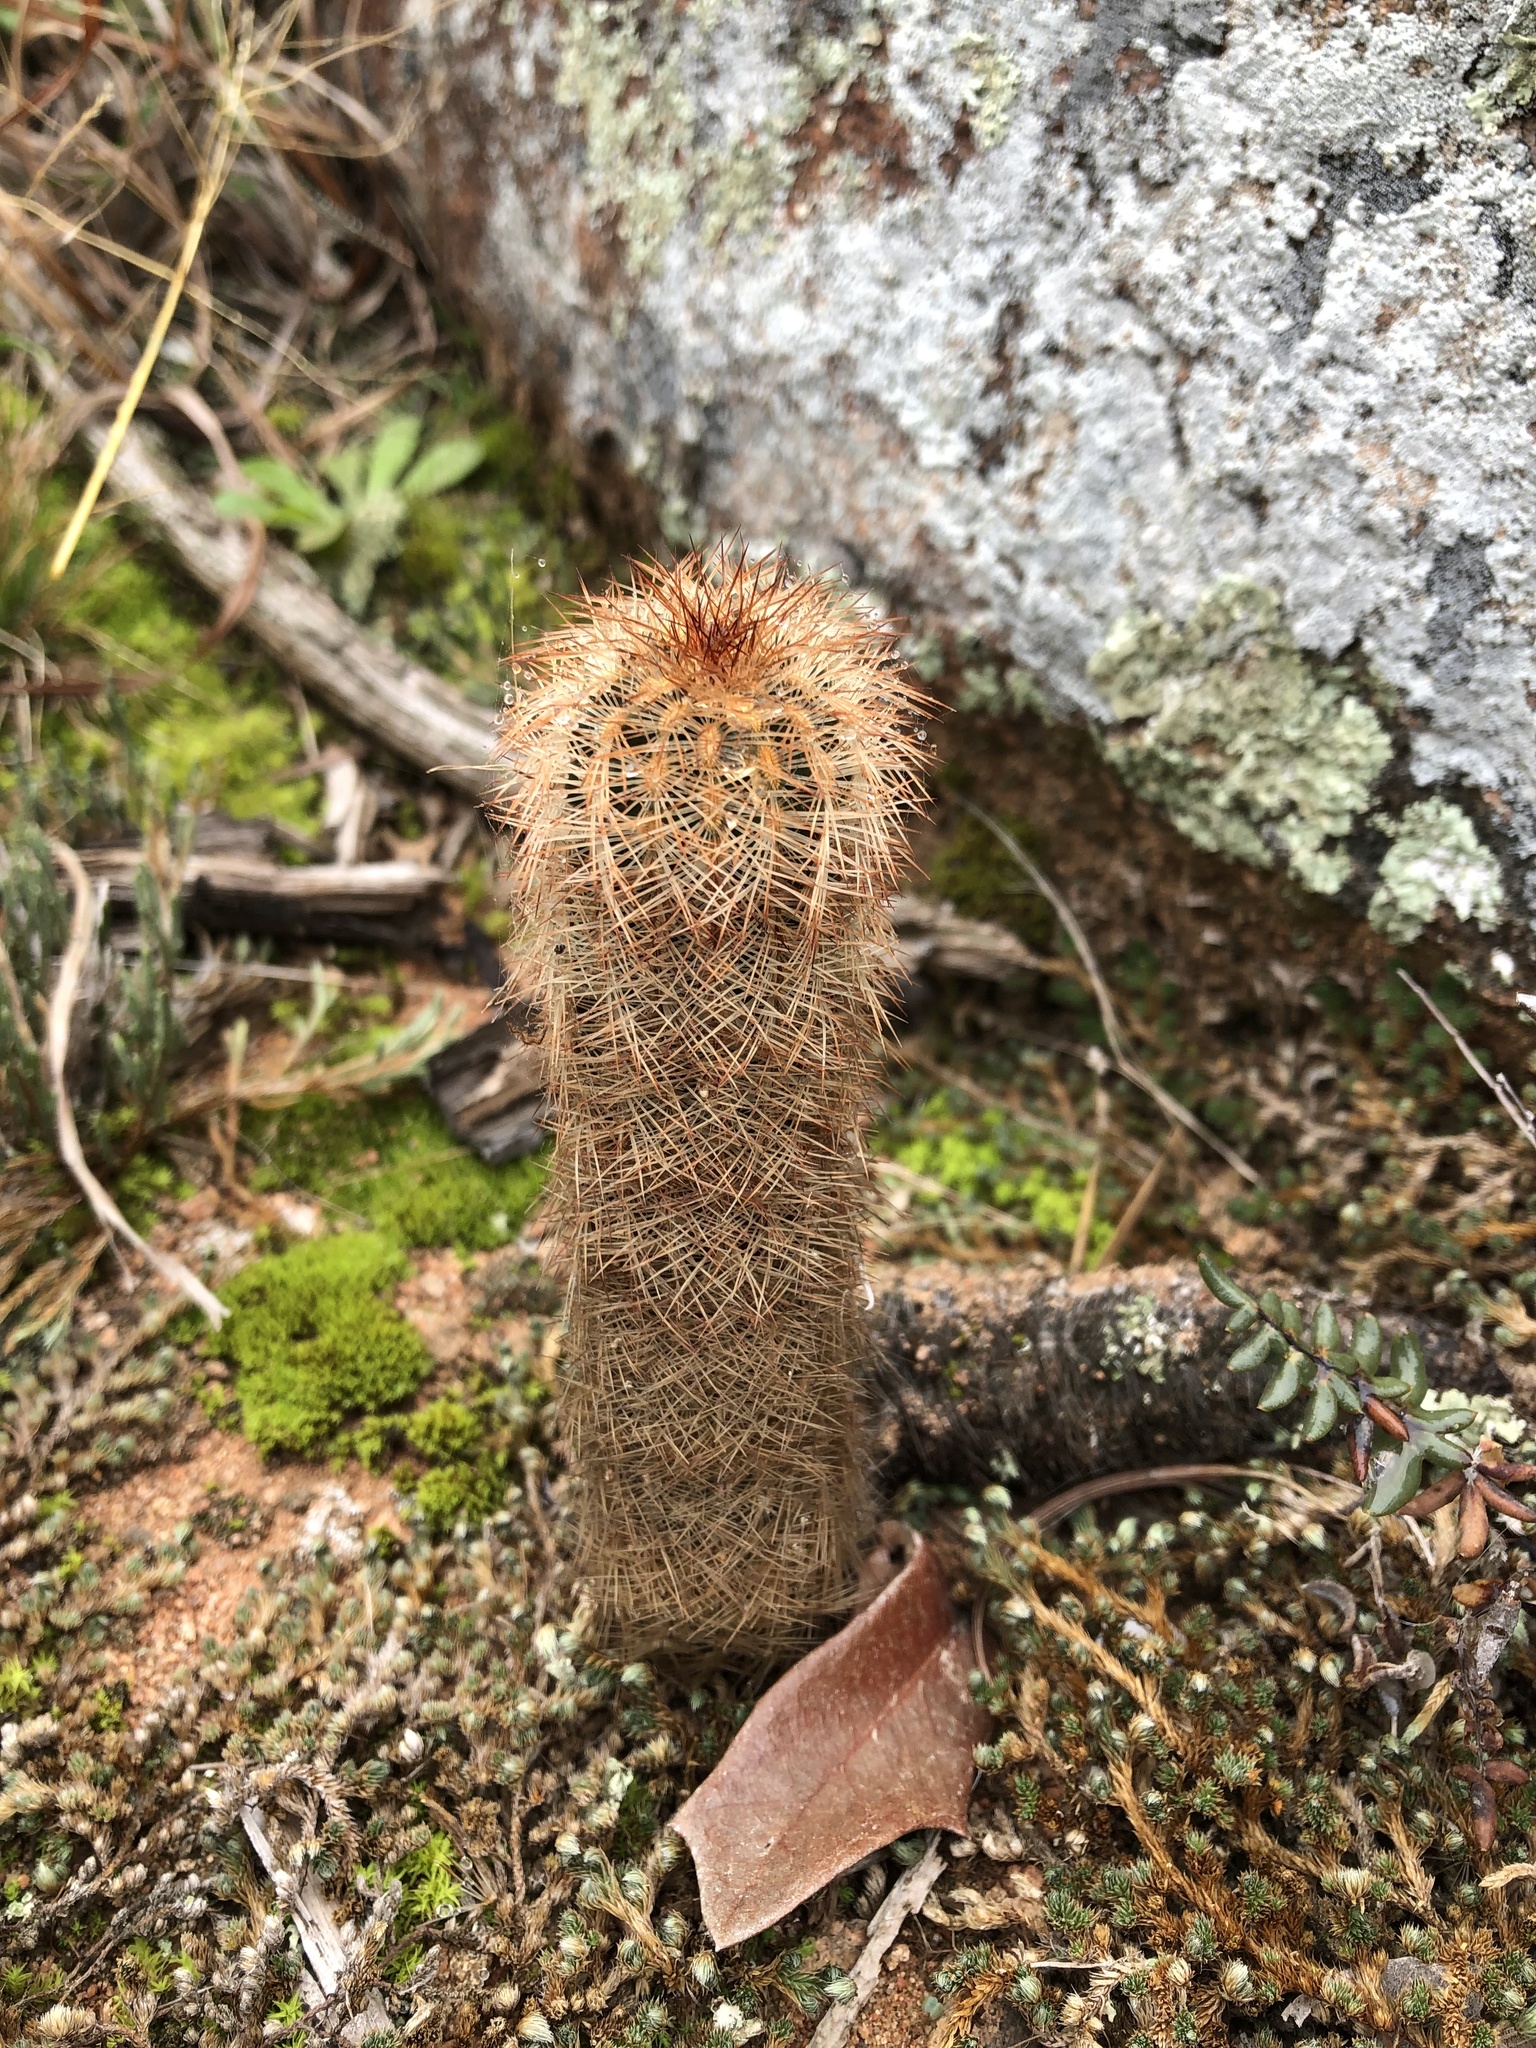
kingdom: Plantae
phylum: Tracheophyta
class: Magnoliopsida
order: Caryophyllales
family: Cactaceae
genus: Echinocereus
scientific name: Echinocereus reichenbachii
